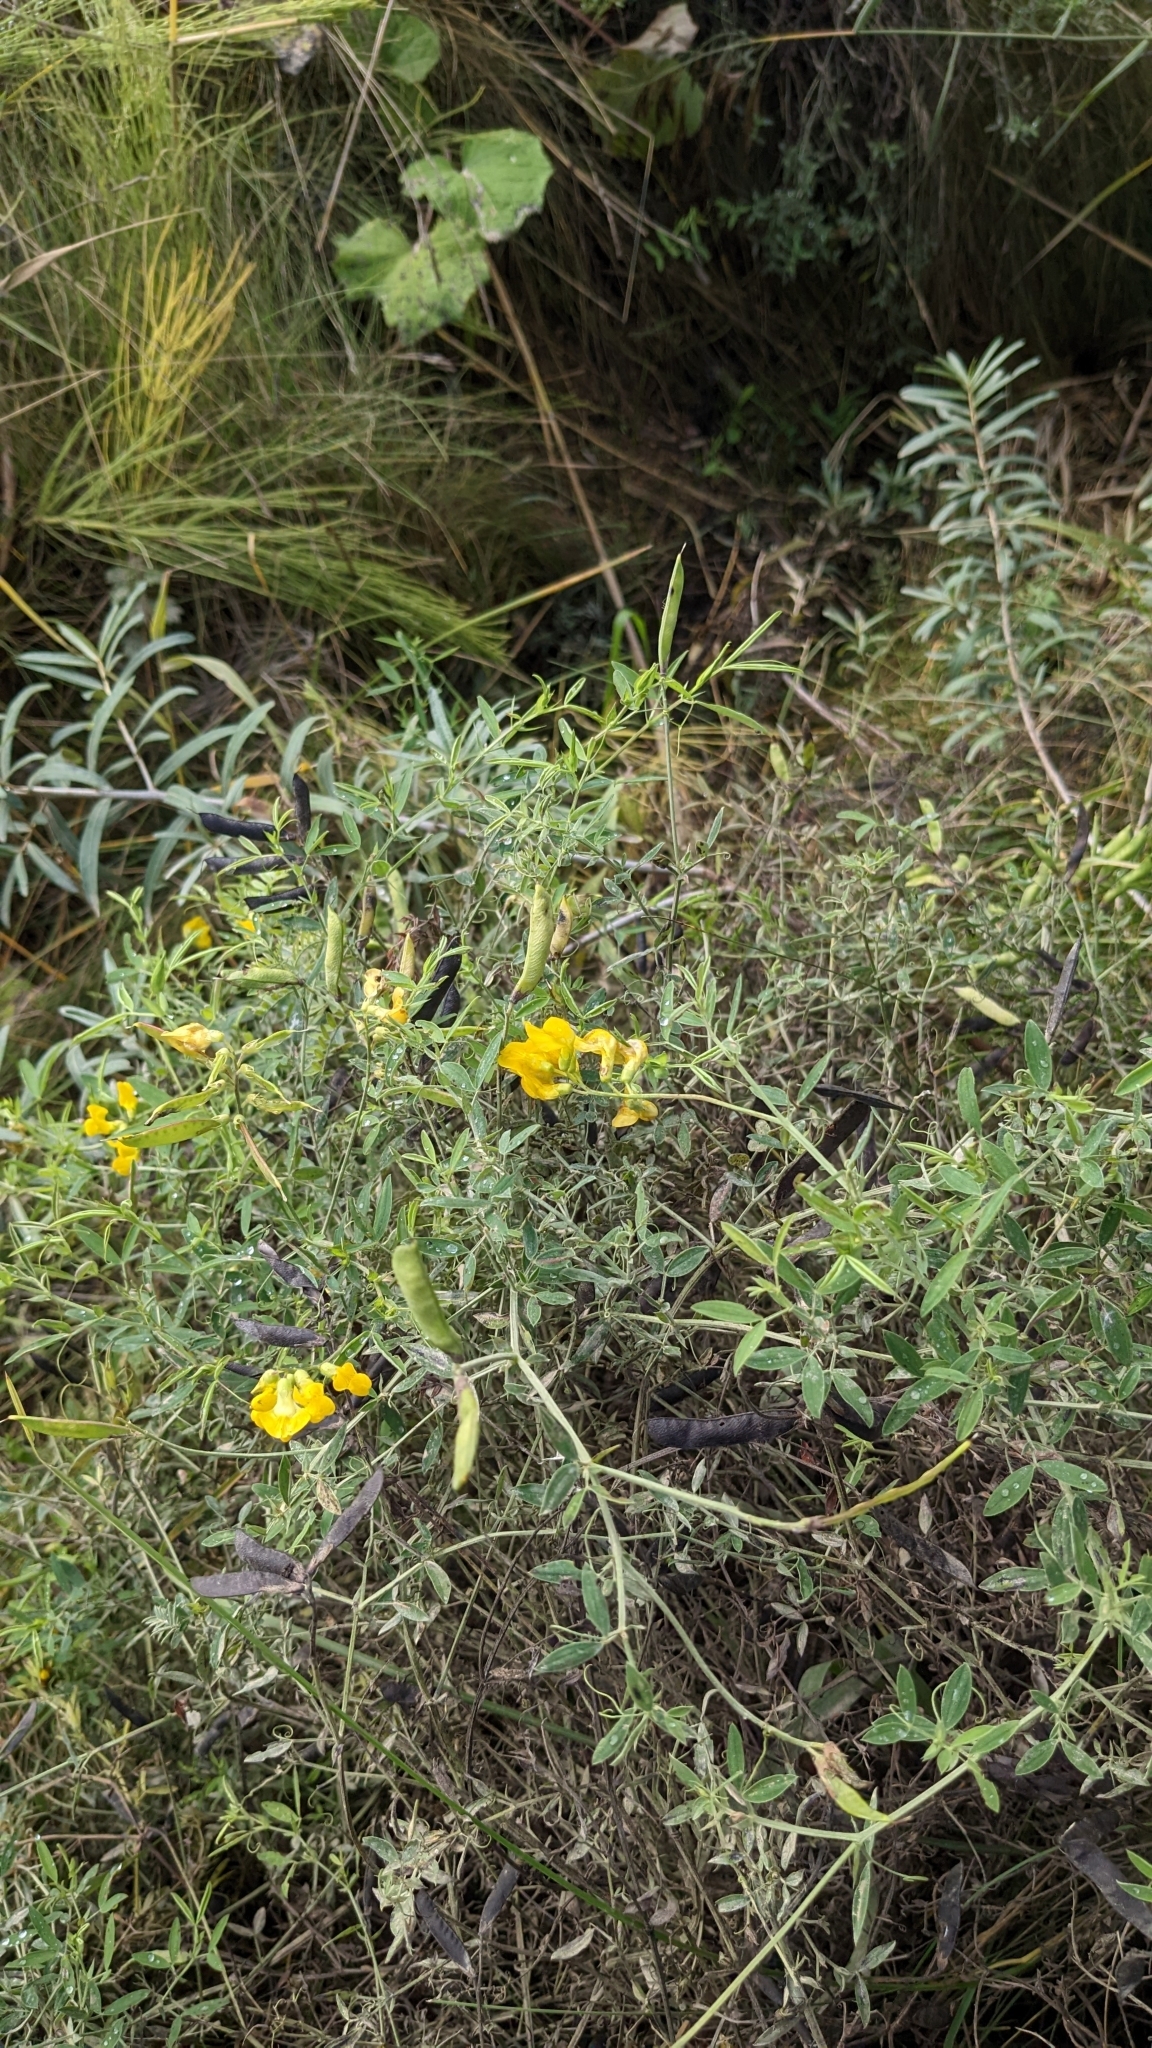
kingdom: Plantae
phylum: Tracheophyta
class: Magnoliopsida
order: Fabales
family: Fabaceae
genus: Lathyrus
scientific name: Lathyrus pratensis
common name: Meadow vetchling
